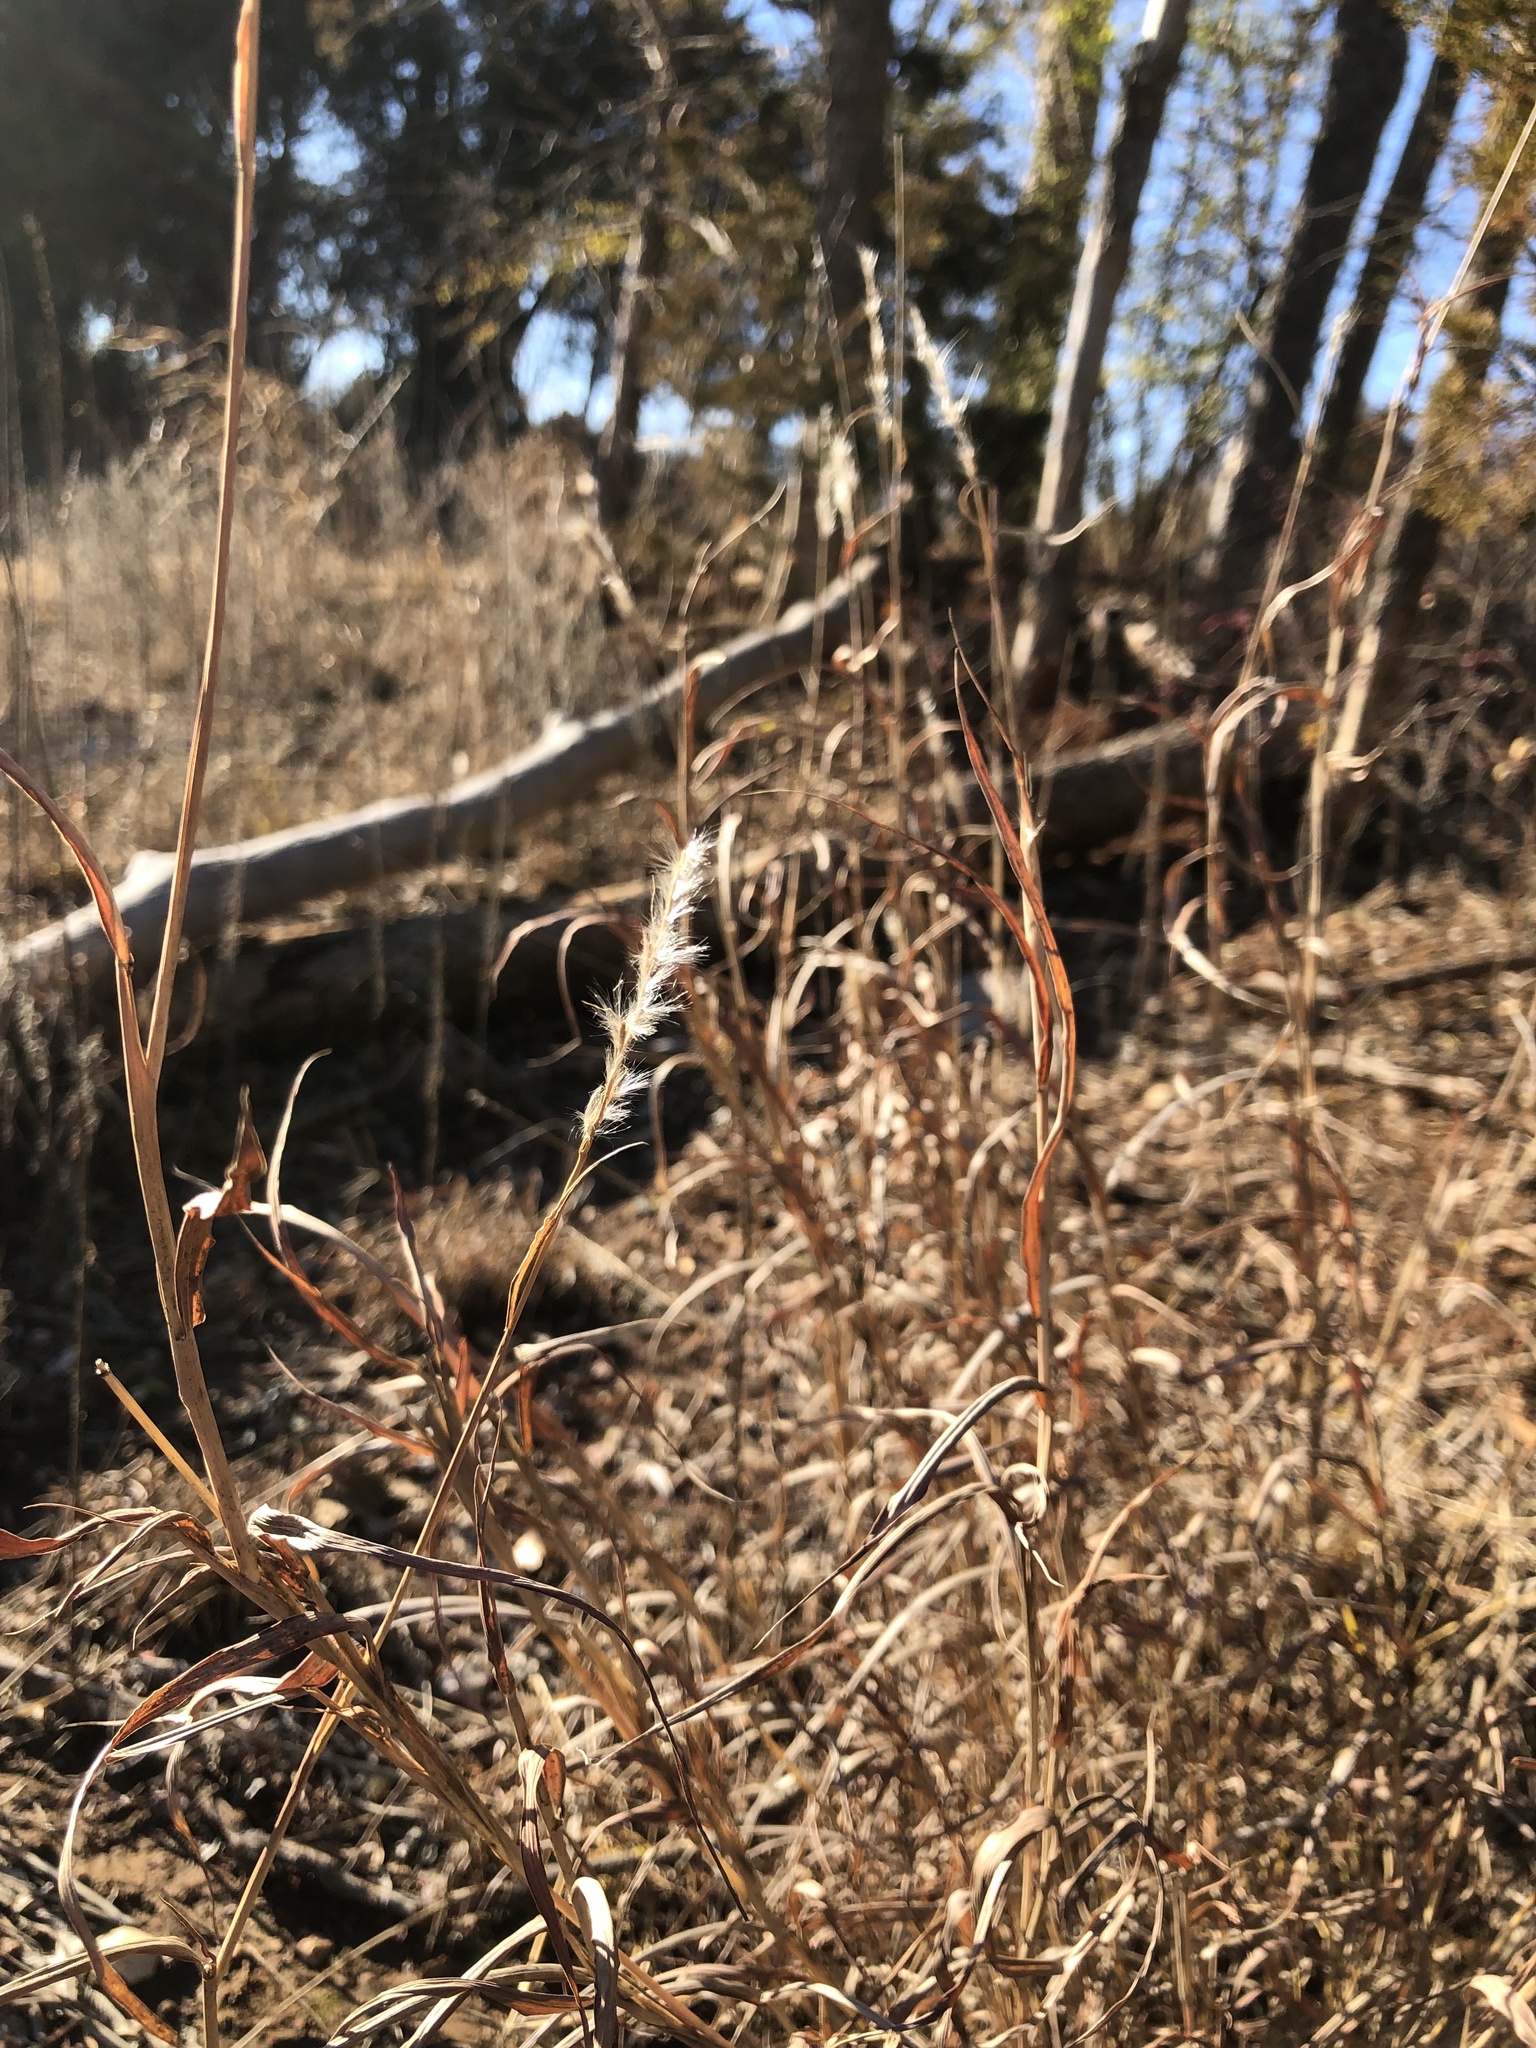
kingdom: Plantae
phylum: Tracheophyta
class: Liliopsida
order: Poales
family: Poaceae
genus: Bothriochloa
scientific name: Bothriochloa torreyana
